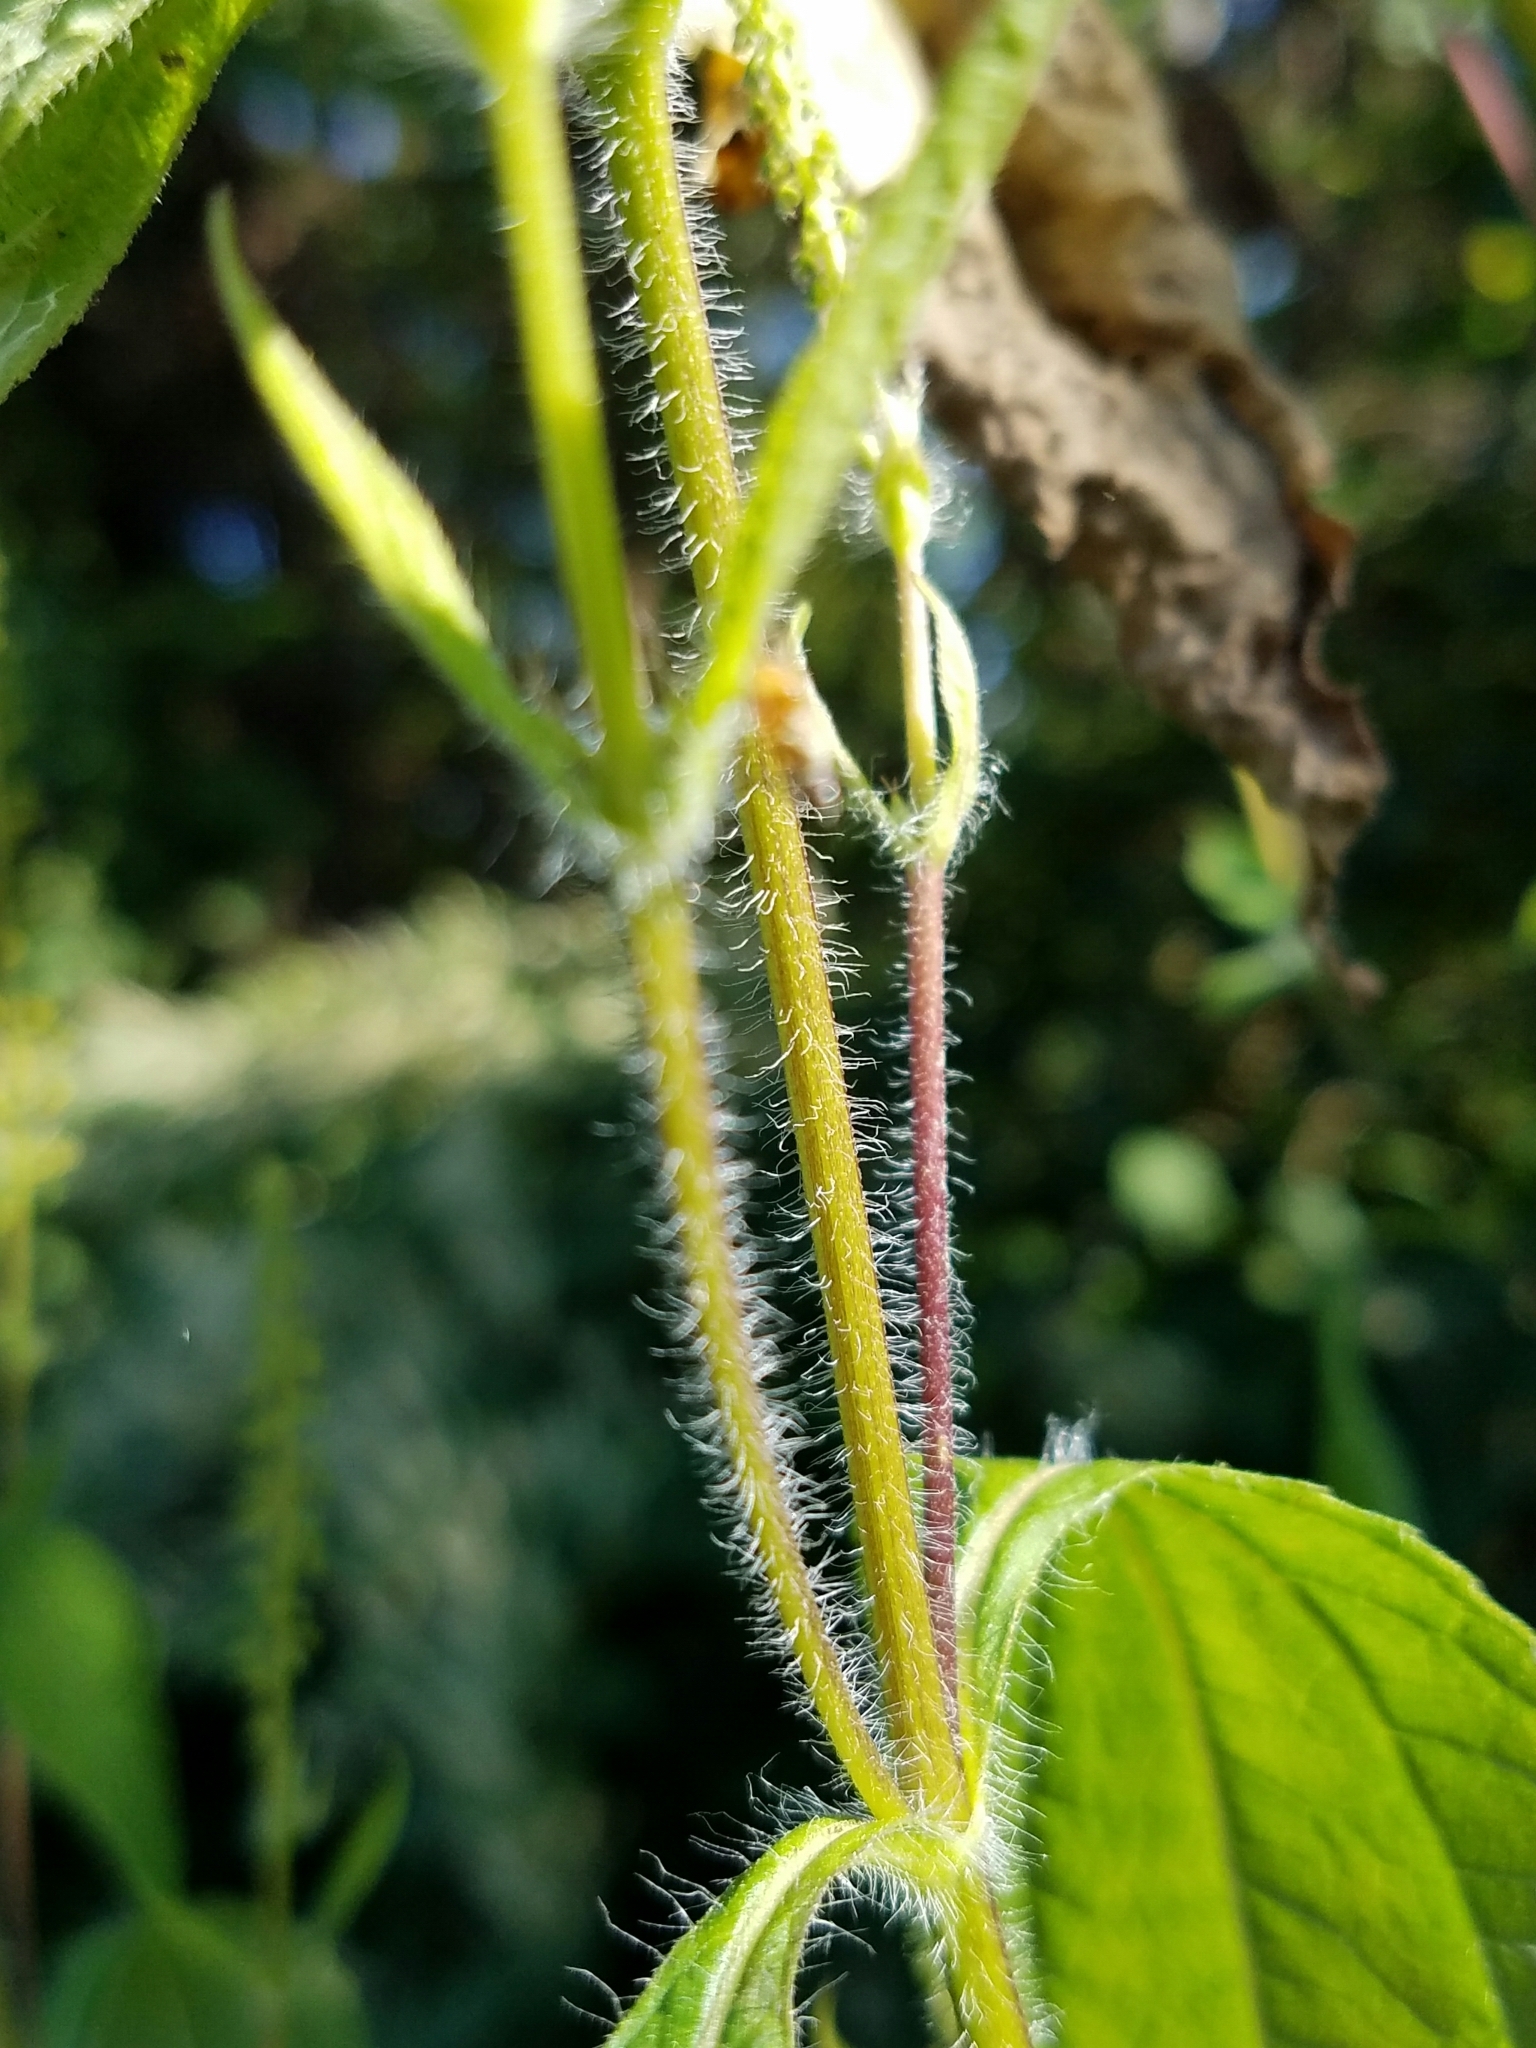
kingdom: Plantae
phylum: Tracheophyta
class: Magnoliopsida
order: Asterales
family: Asteraceae
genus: Ambrosia
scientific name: Ambrosia trifida
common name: Giant ragweed
